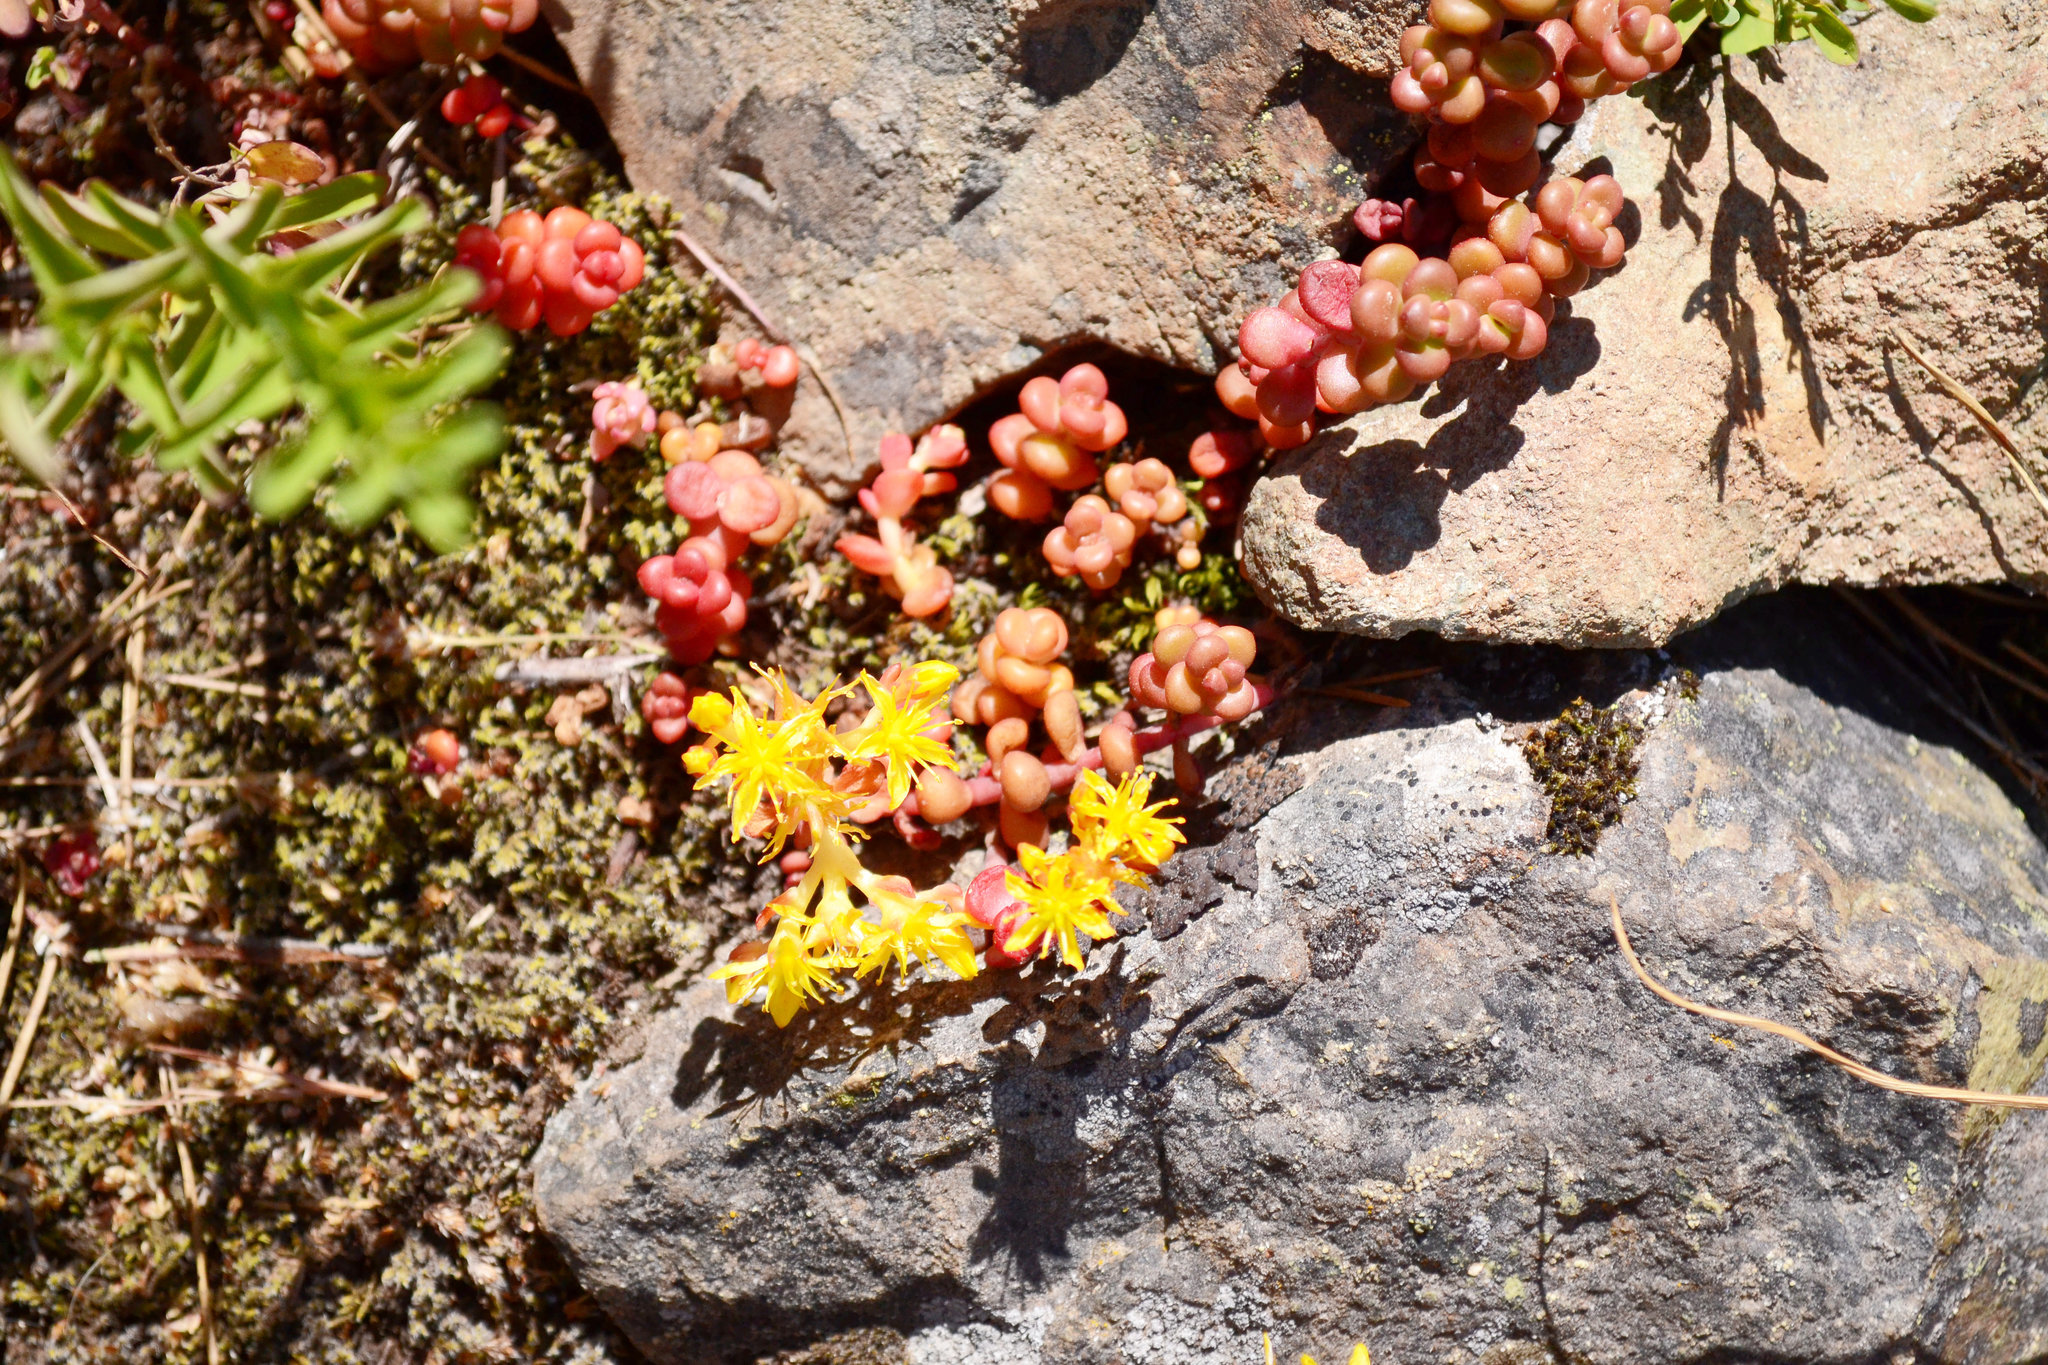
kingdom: Plantae
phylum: Tracheophyta
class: Magnoliopsida
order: Saxifragales
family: Crassulaceae
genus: Sedum
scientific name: Sedum divergens
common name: Cascade stonecrop
